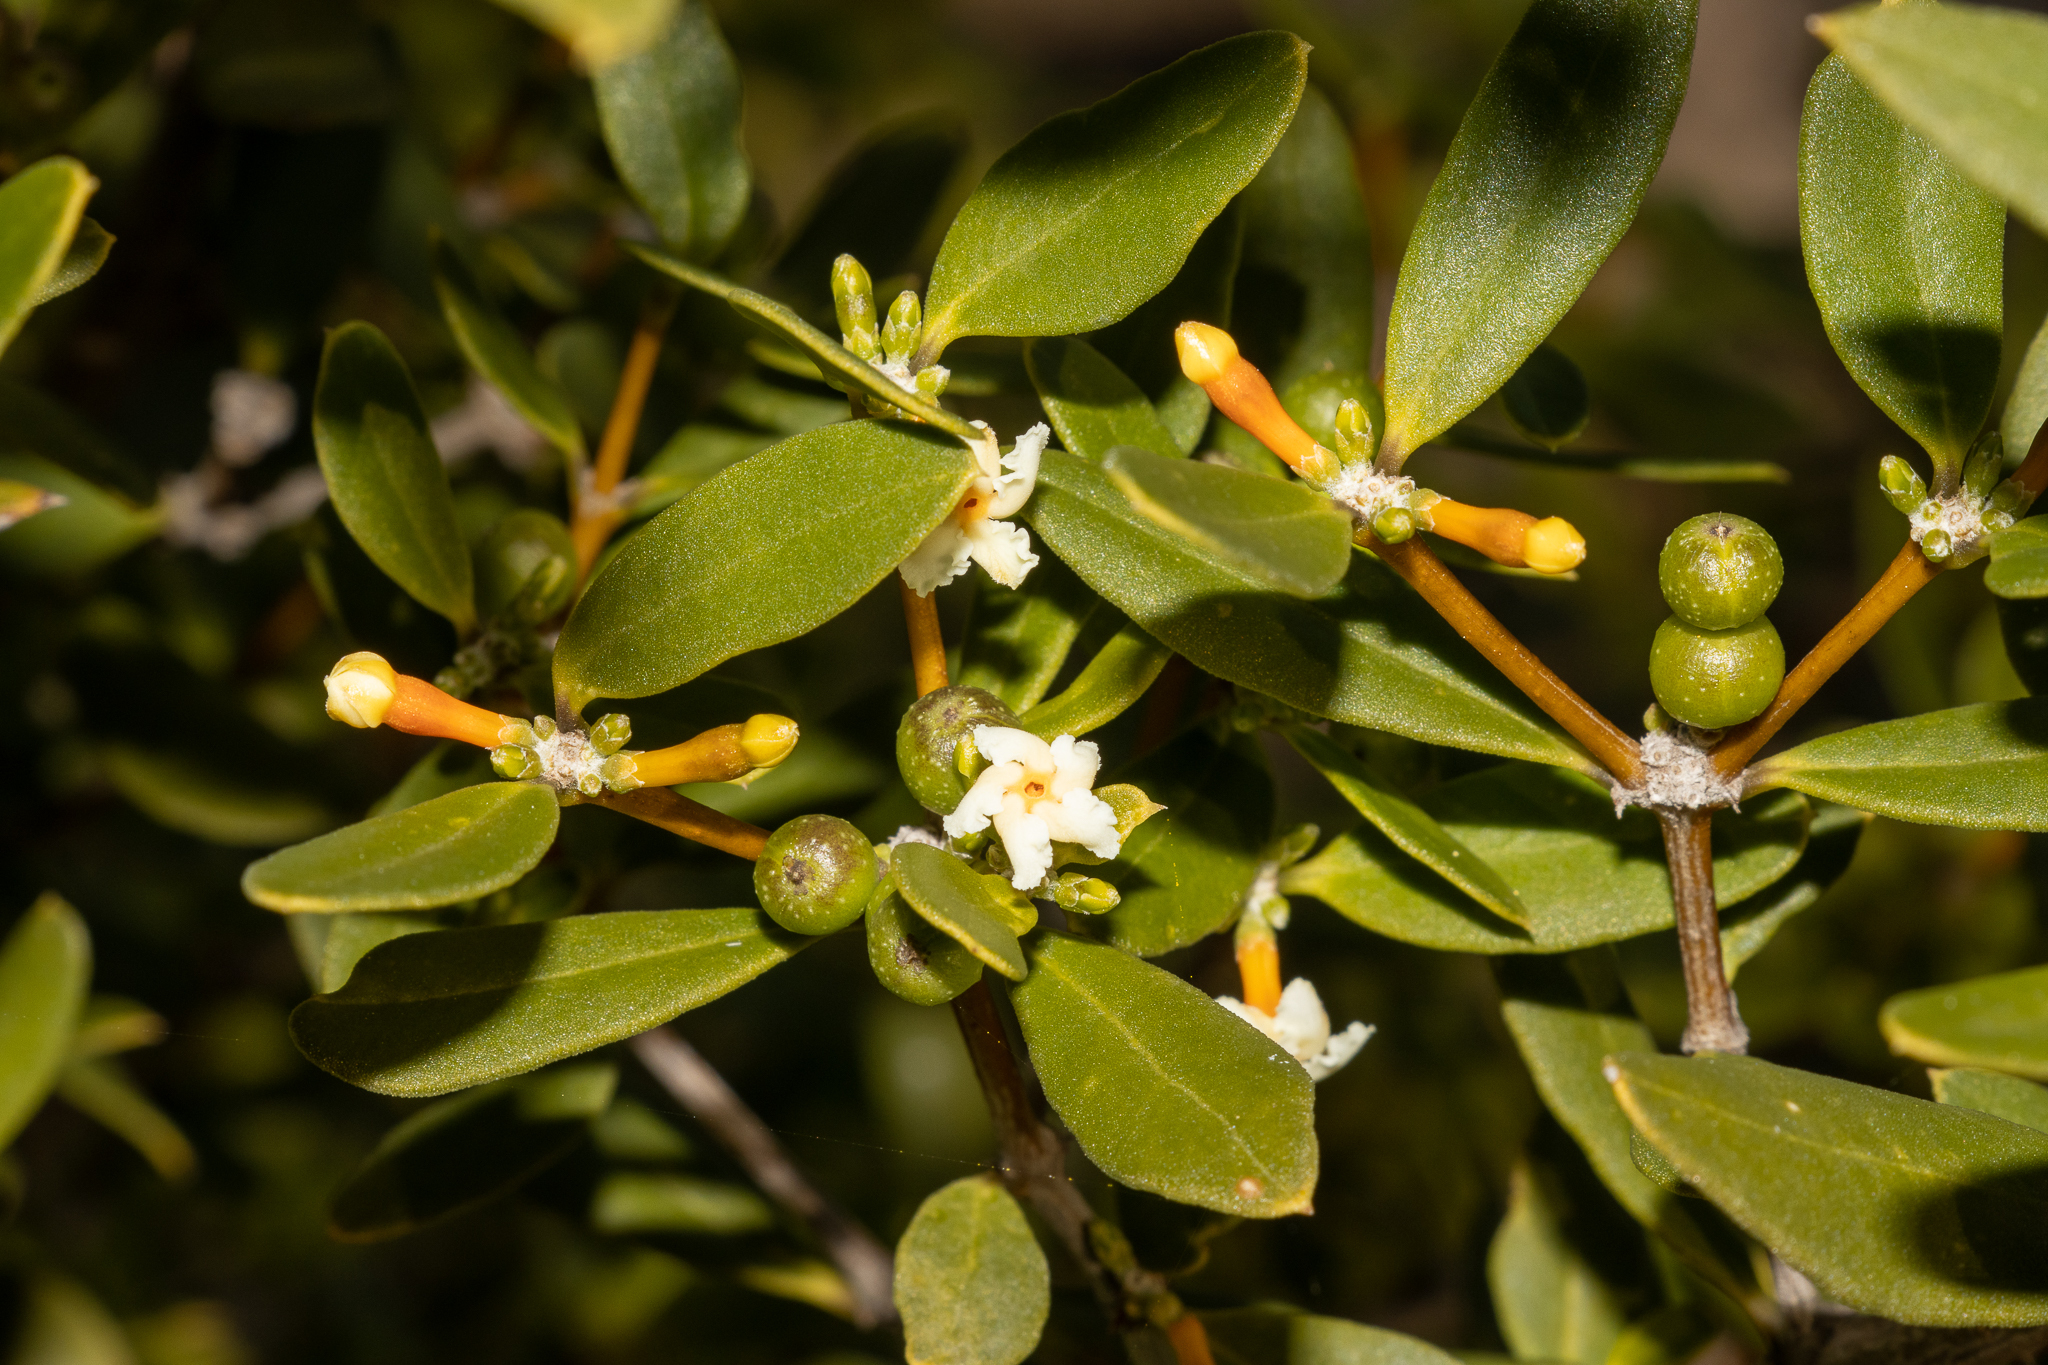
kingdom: Plantae
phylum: Tracheophyta
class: Magnoliopsida
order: Gentianales
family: Apocynaceae
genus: Alyxia
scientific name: Alyxia buxifolia
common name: Dysentery-bush
